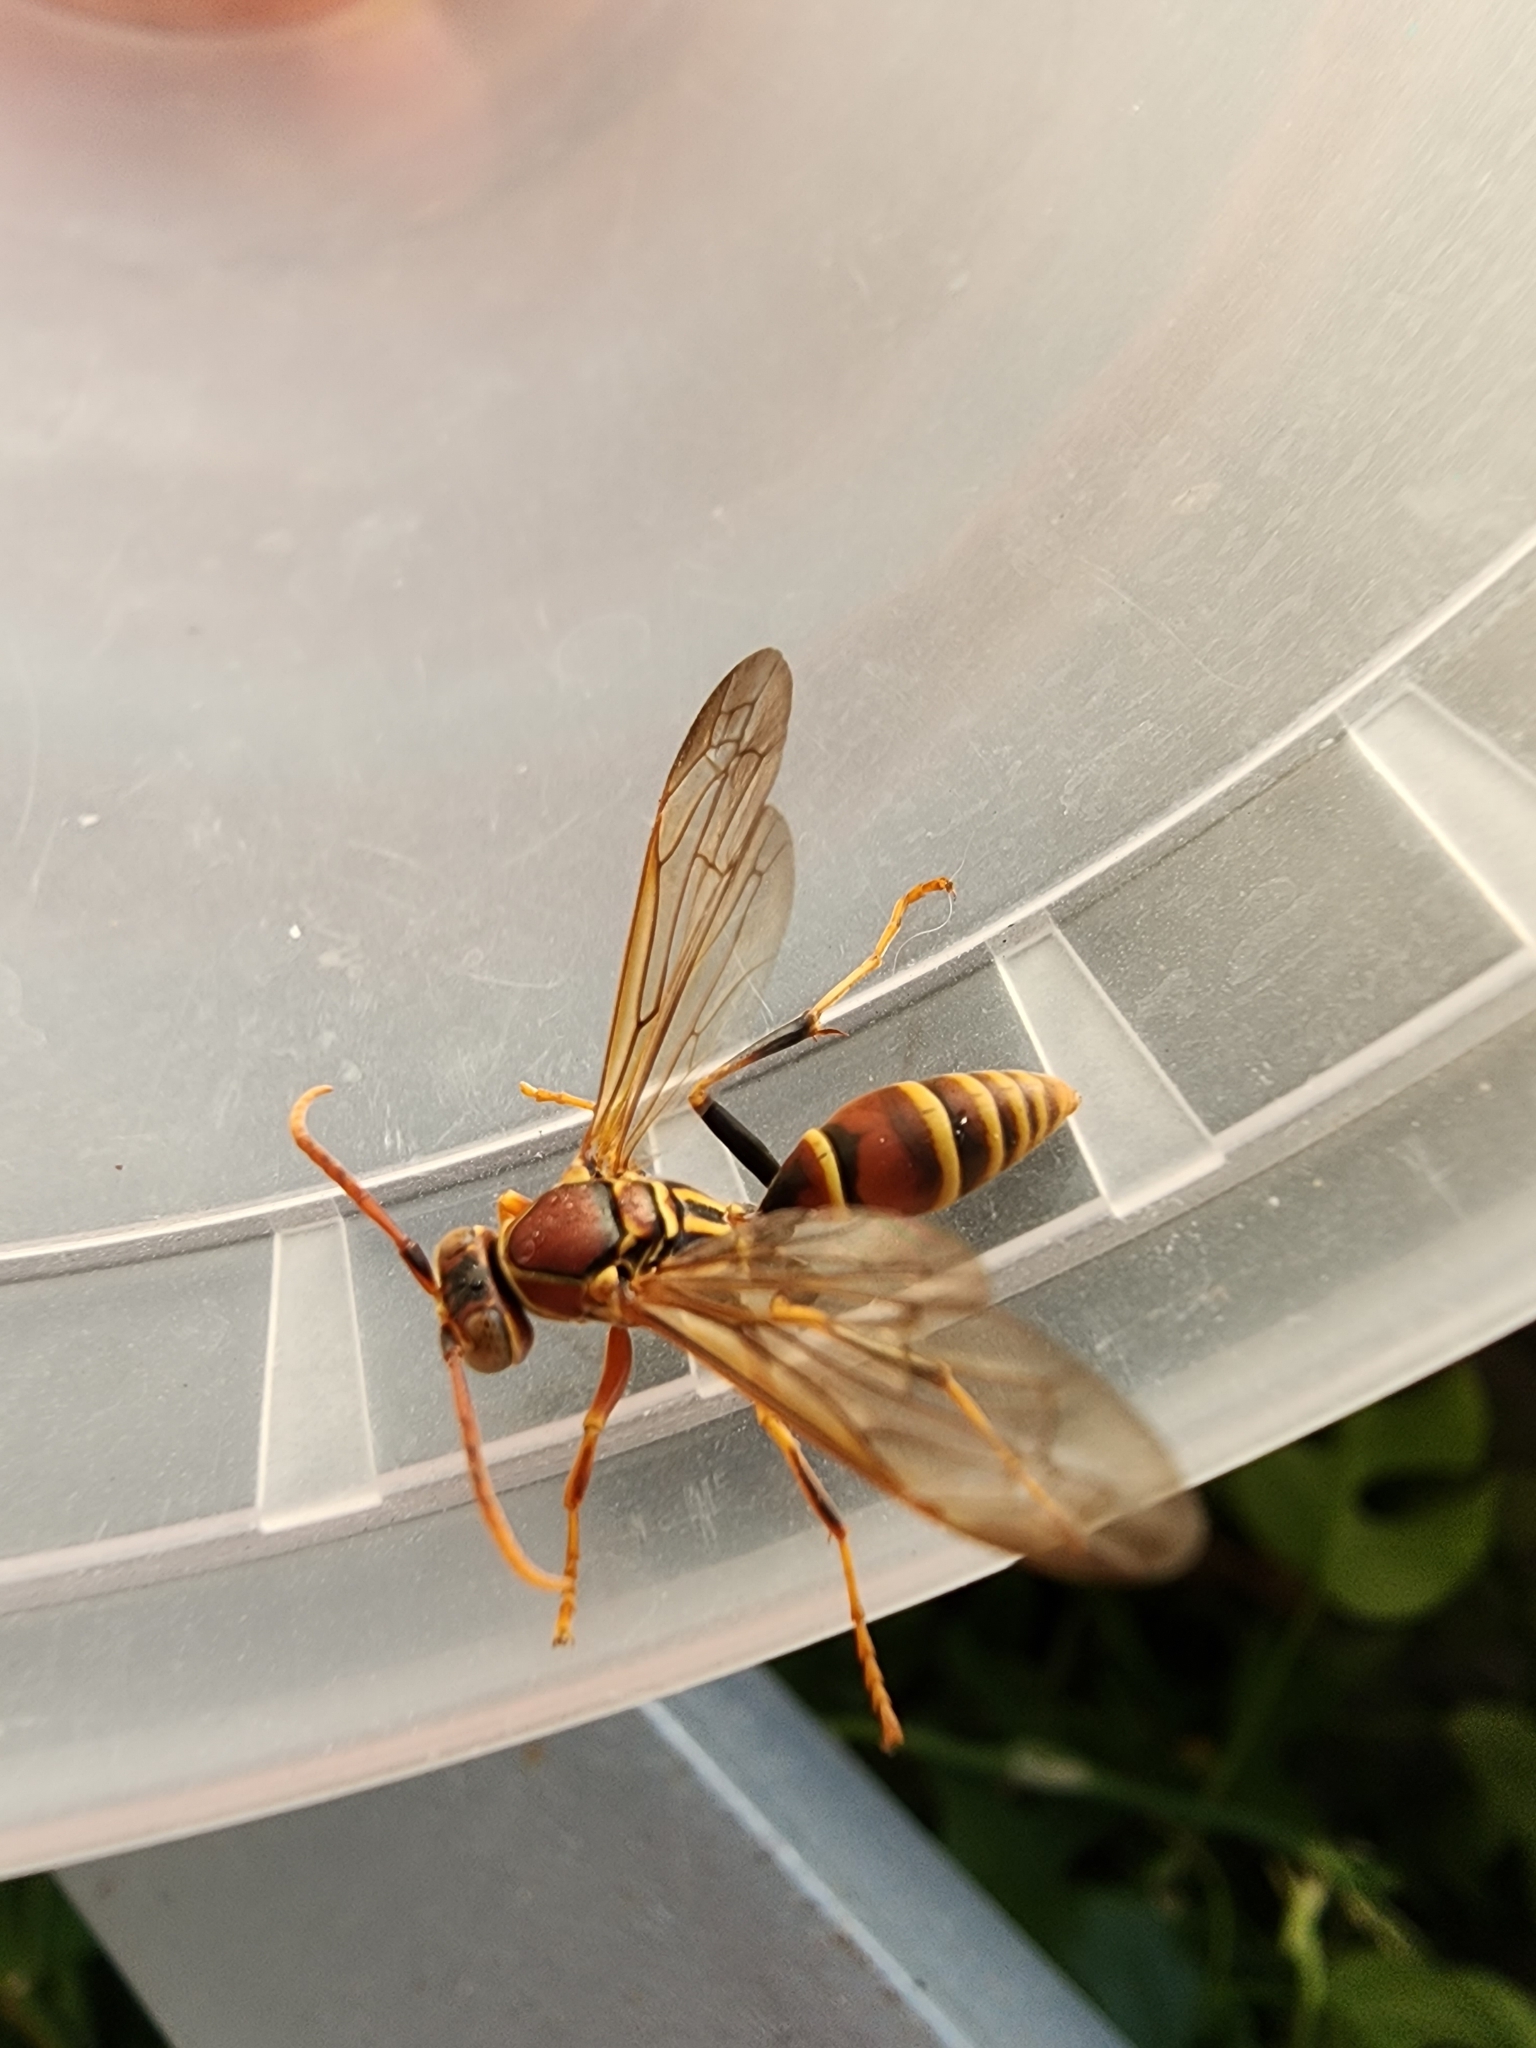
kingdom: Animalia
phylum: Arthropoda
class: Insecta
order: Hymenoptera
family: Eumenidae
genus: Polistes
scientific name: Polistes exclamans
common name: Paper wasp
